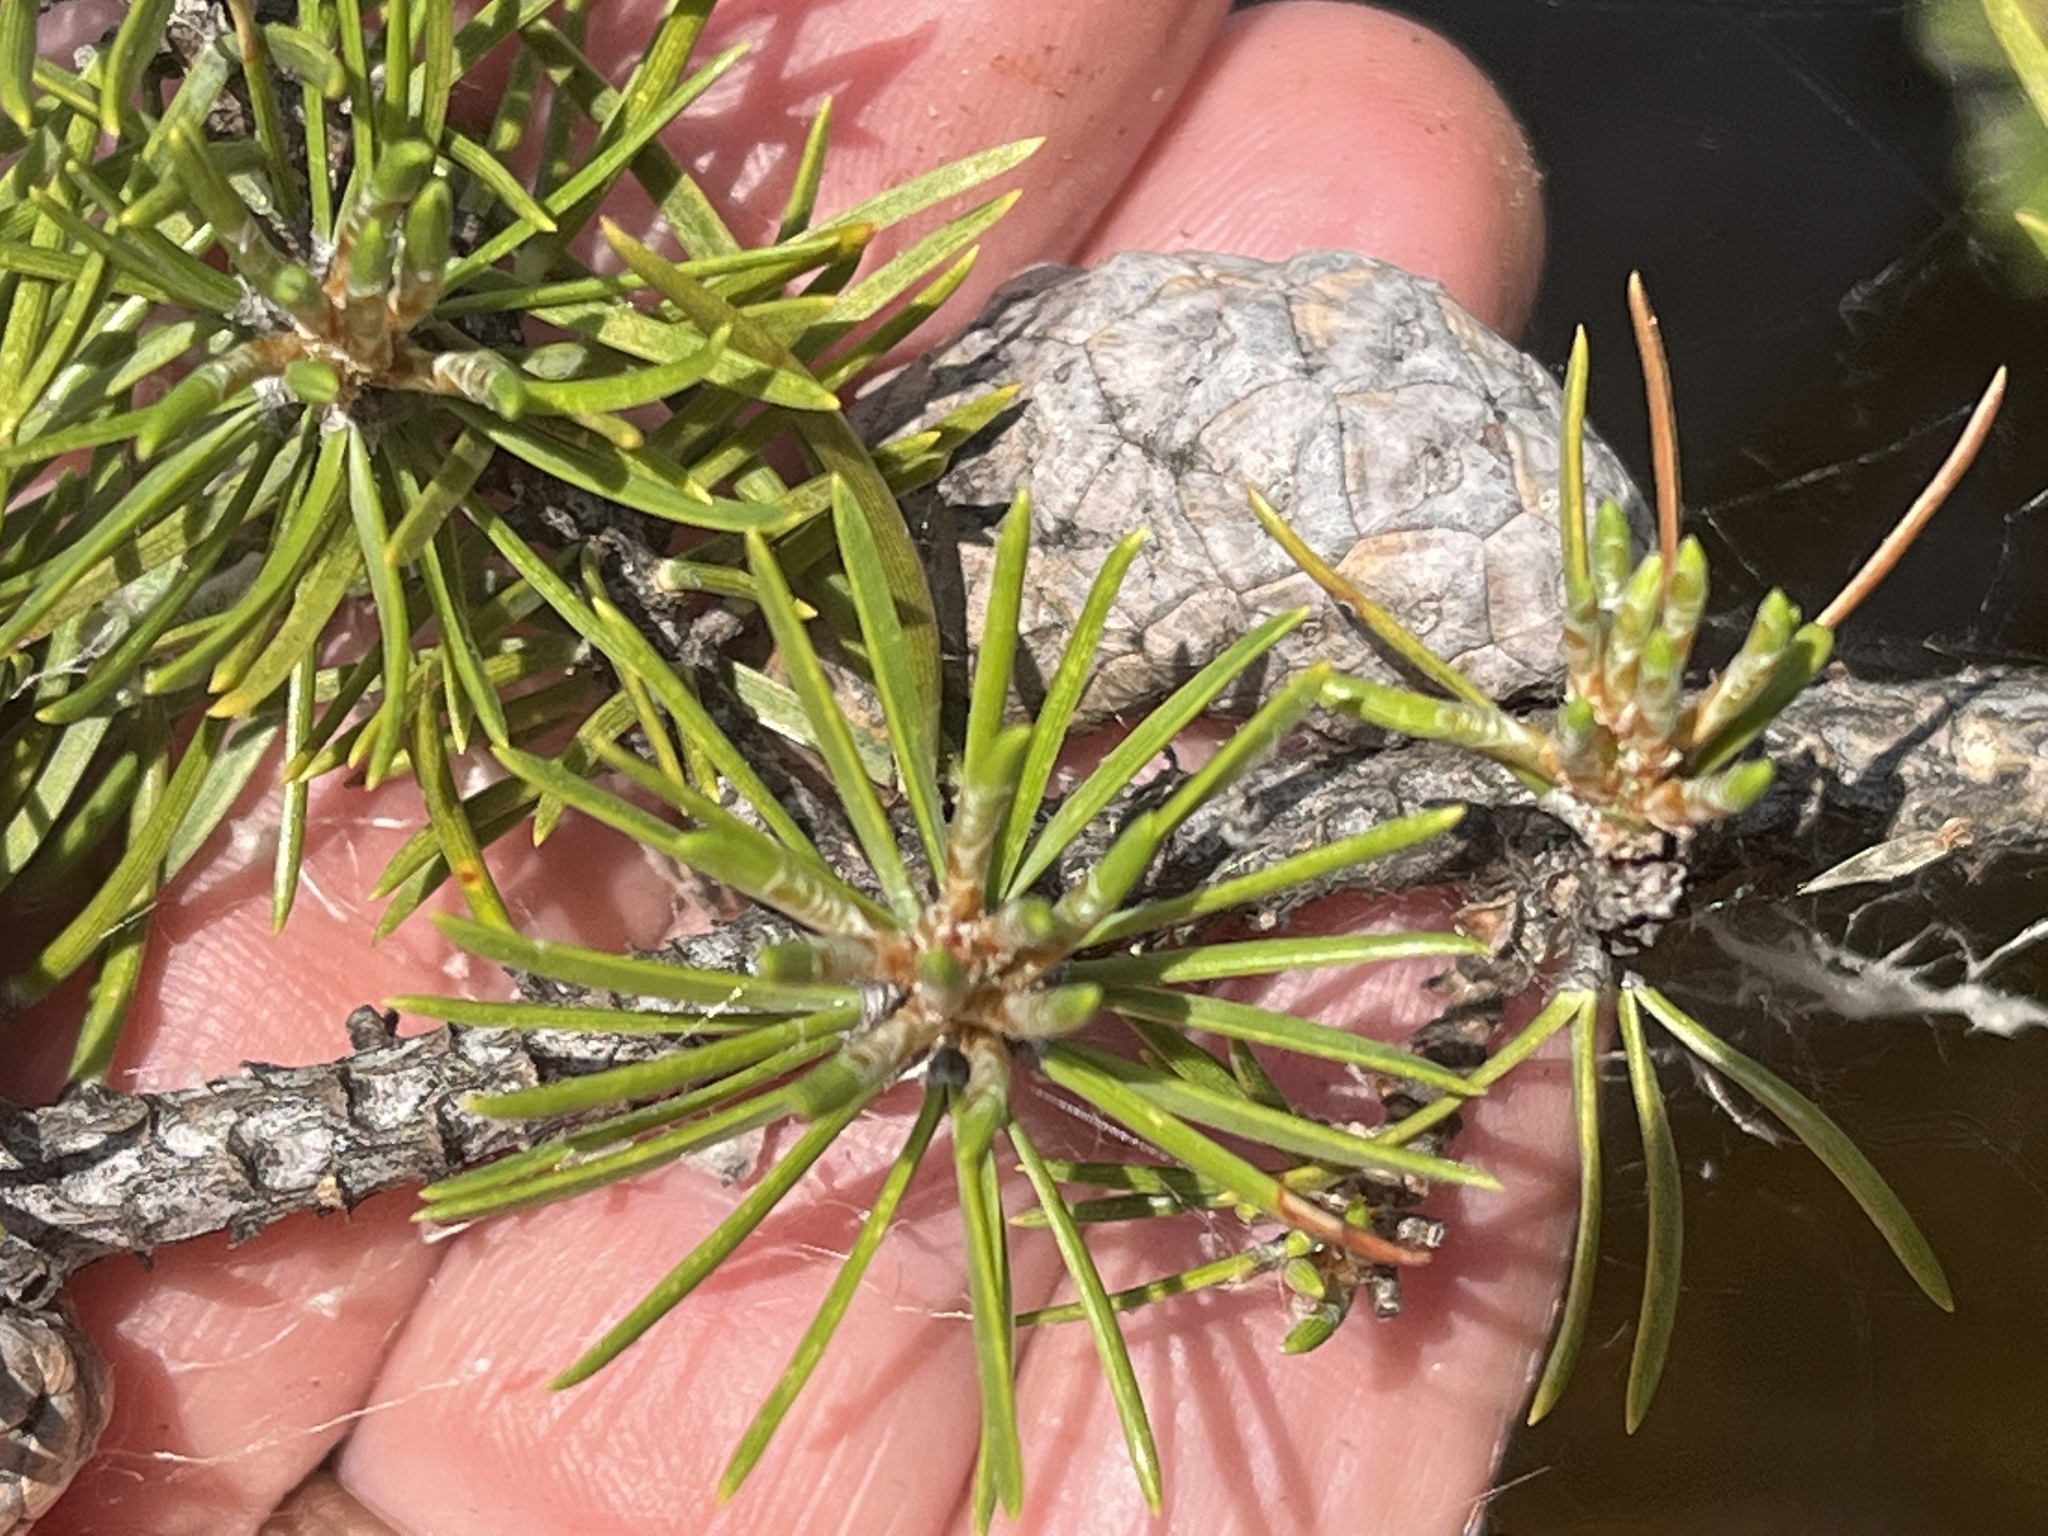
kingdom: Plantae
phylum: Tracheophyta
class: Pinopsida
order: Pinales
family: Pinaceae
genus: Pinus
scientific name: Pinus banksiana
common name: Jack pine
